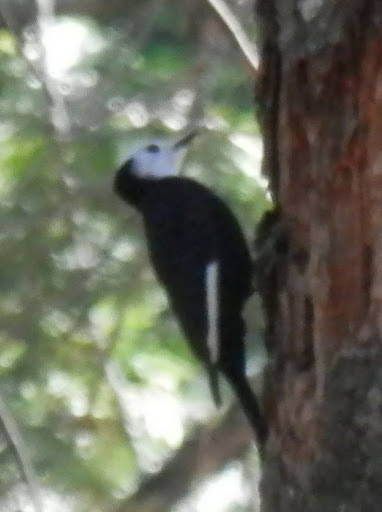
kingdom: Animalia
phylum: Chordata
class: Aves
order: Piciformes
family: Picidae
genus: Leuconotopicus
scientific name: Leuconotopicus albolarvatus
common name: White-headed woodpecker
